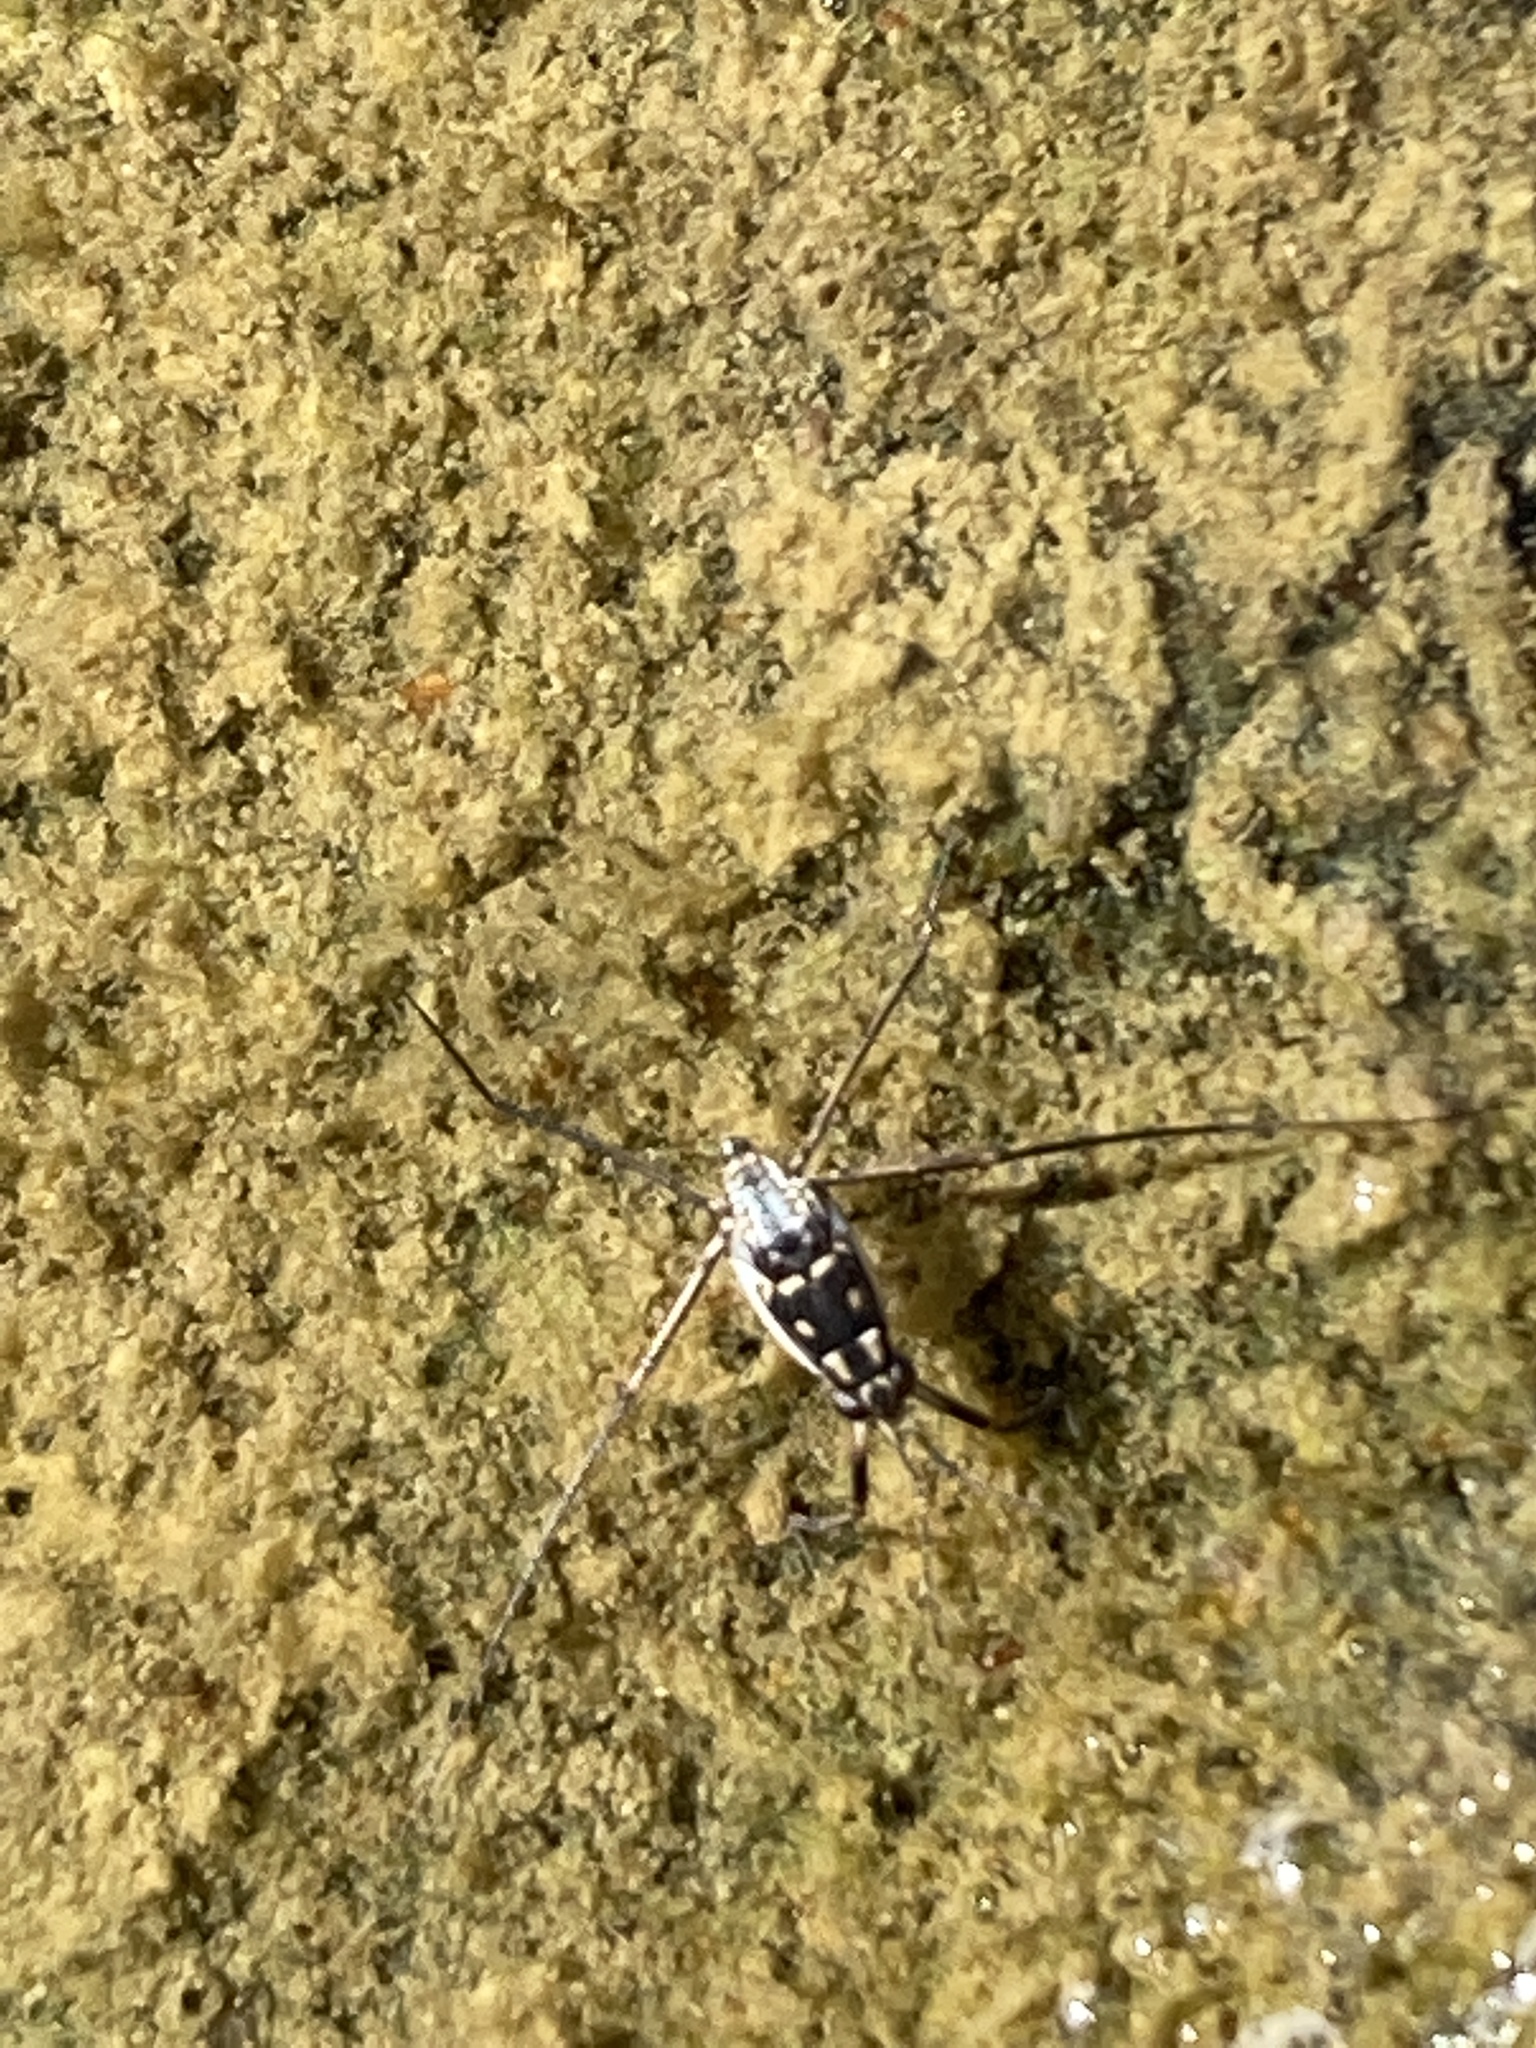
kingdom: Animalia
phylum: Arthropoda
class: Insecta
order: Hemiptera
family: Gerridae
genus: Trepobates
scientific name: Trepobates subnitidus
